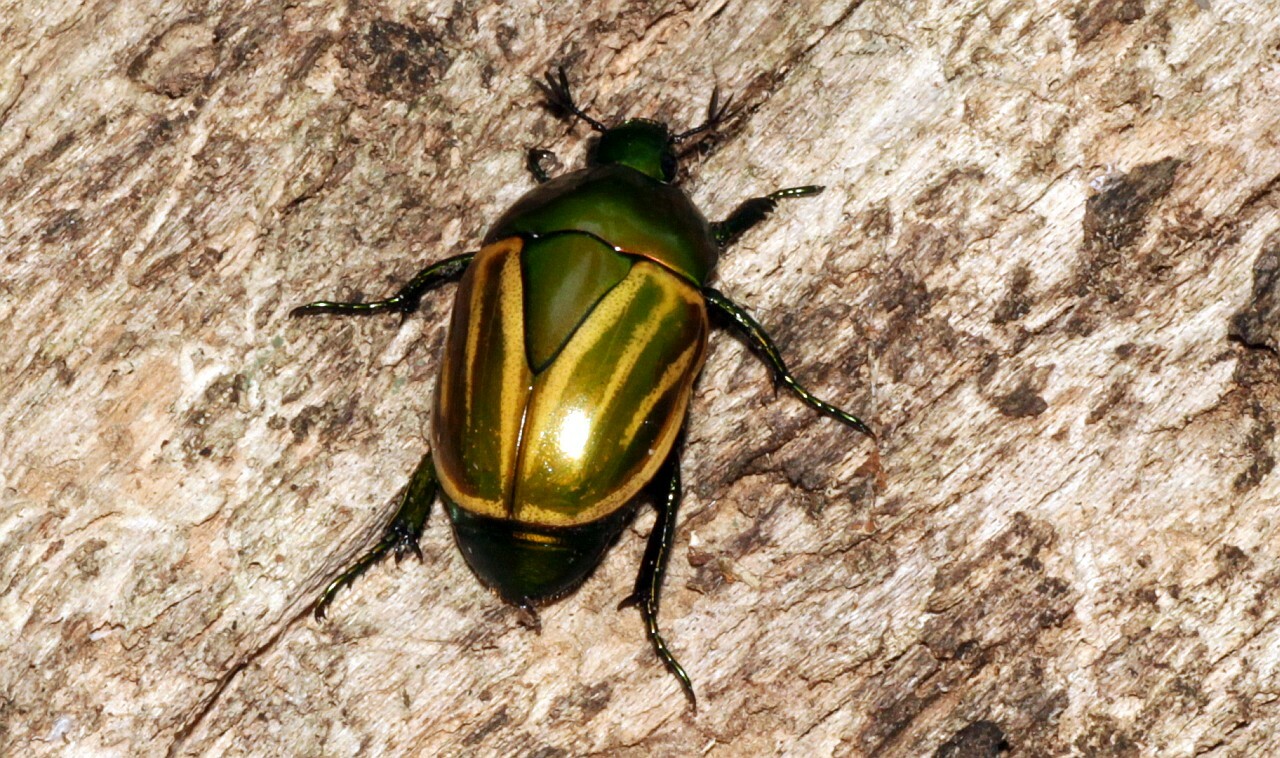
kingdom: Animalia
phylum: Arthropoda
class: Insecta
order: Coleoptera
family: Scarabaeidae
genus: Macraspis
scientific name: Macraspis festiva
